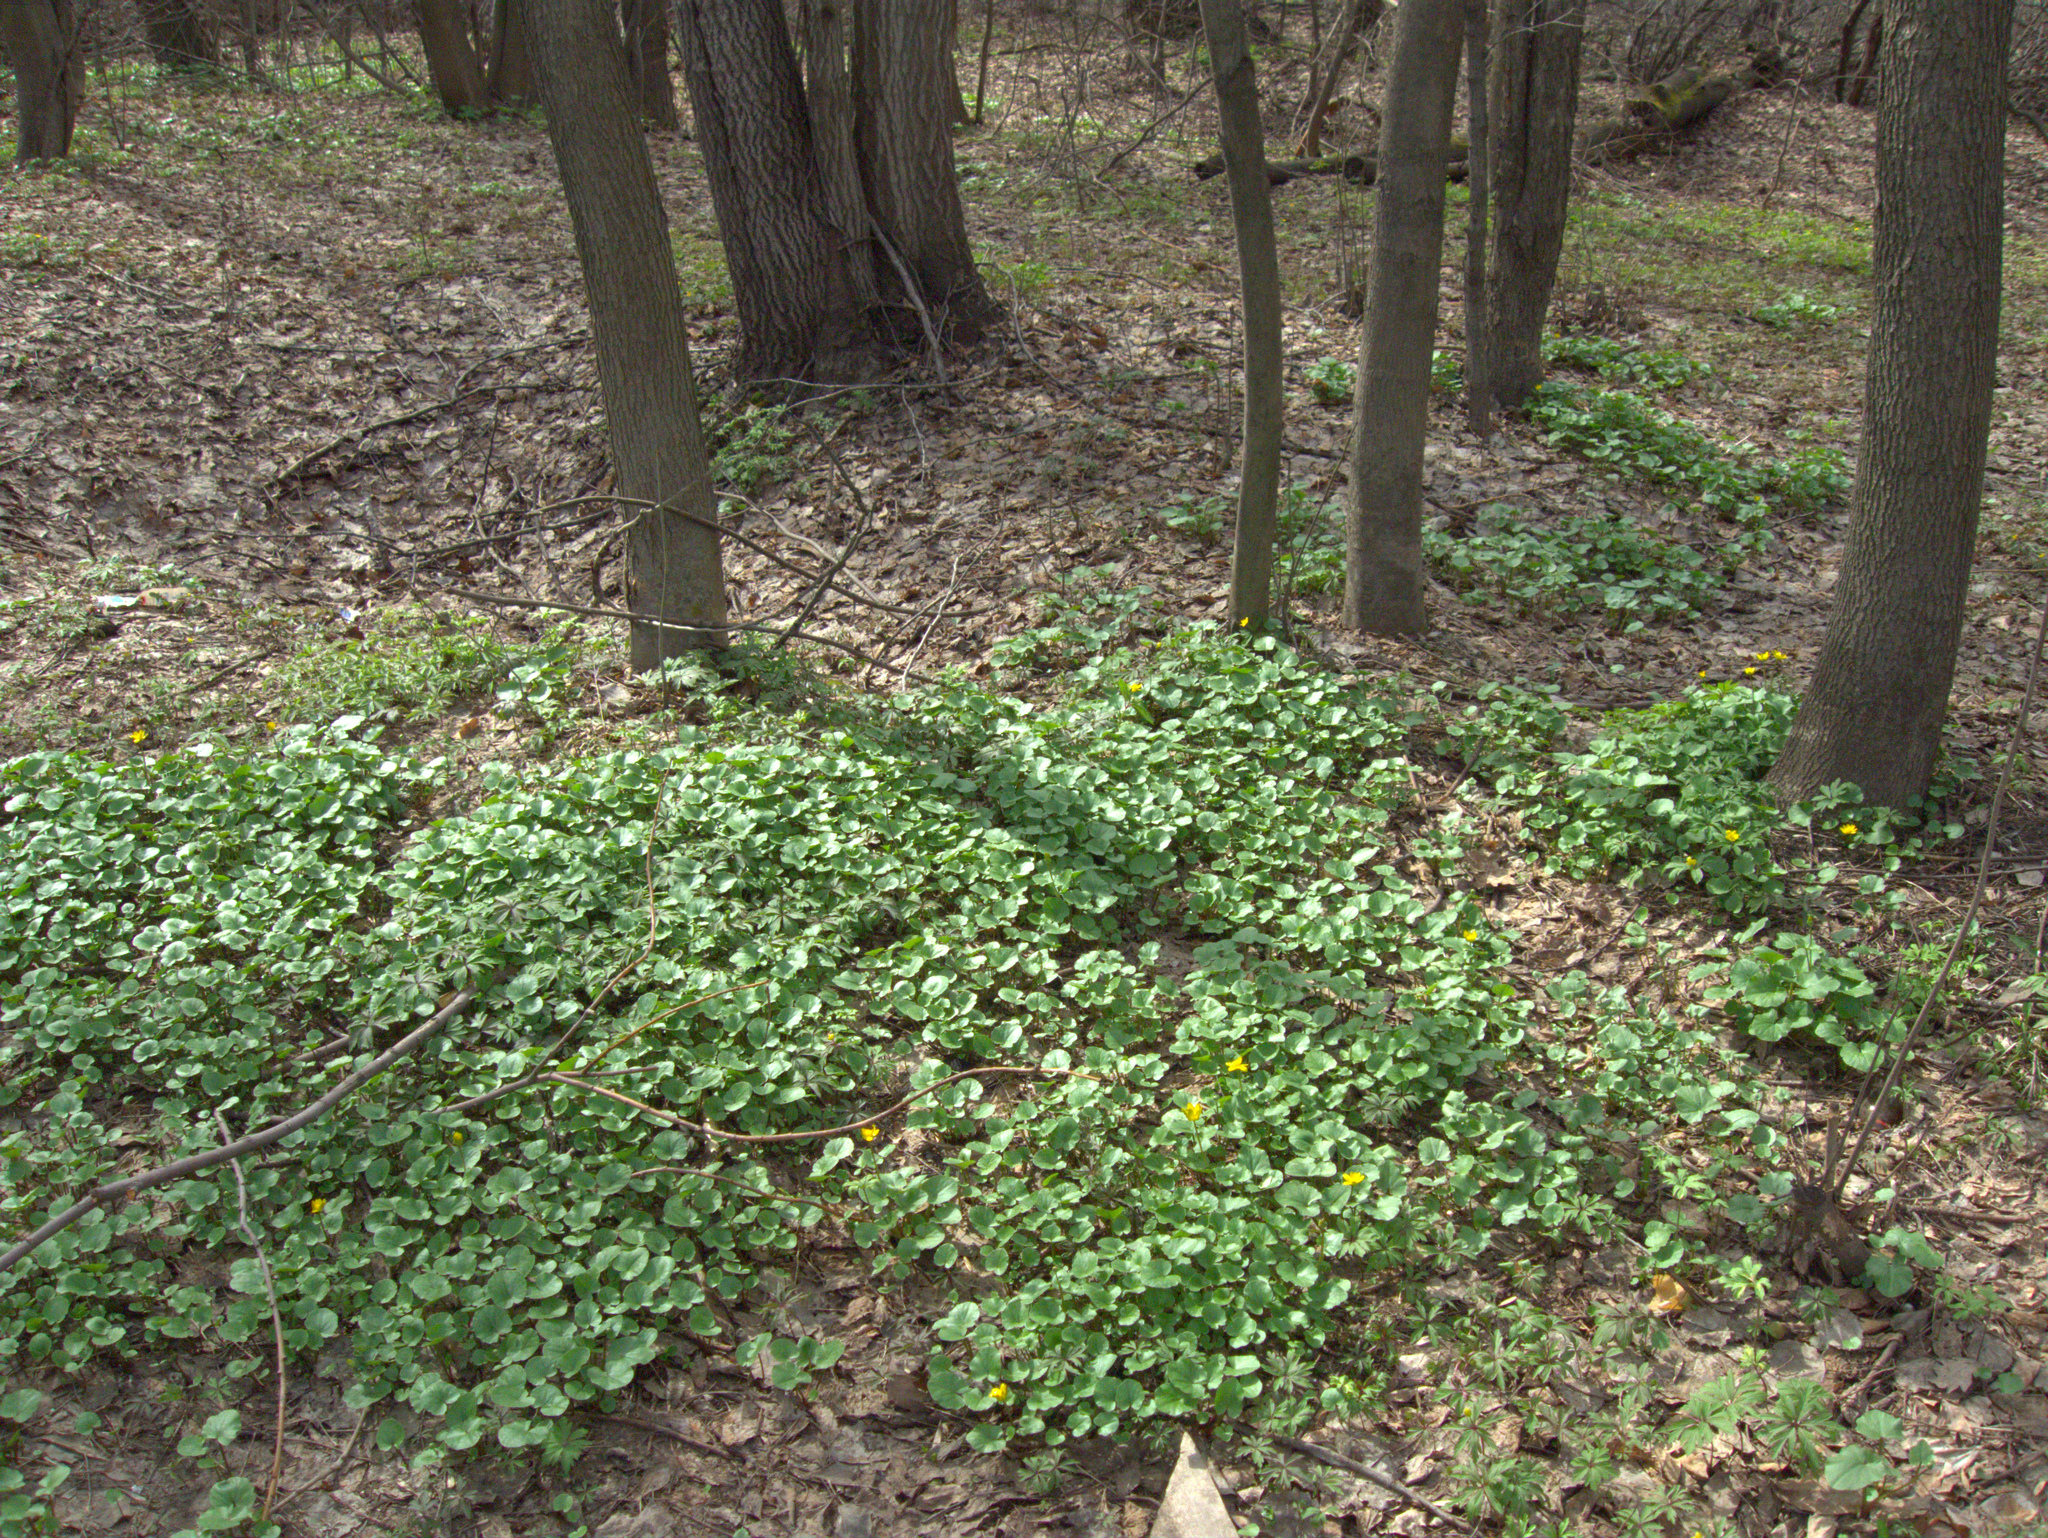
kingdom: Plantae
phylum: Tracheophyta
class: Magnoliopsida
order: Ranunculales
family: Ranunculaceae
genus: Ficaria
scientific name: Ficaria verna
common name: Lesser celandine
